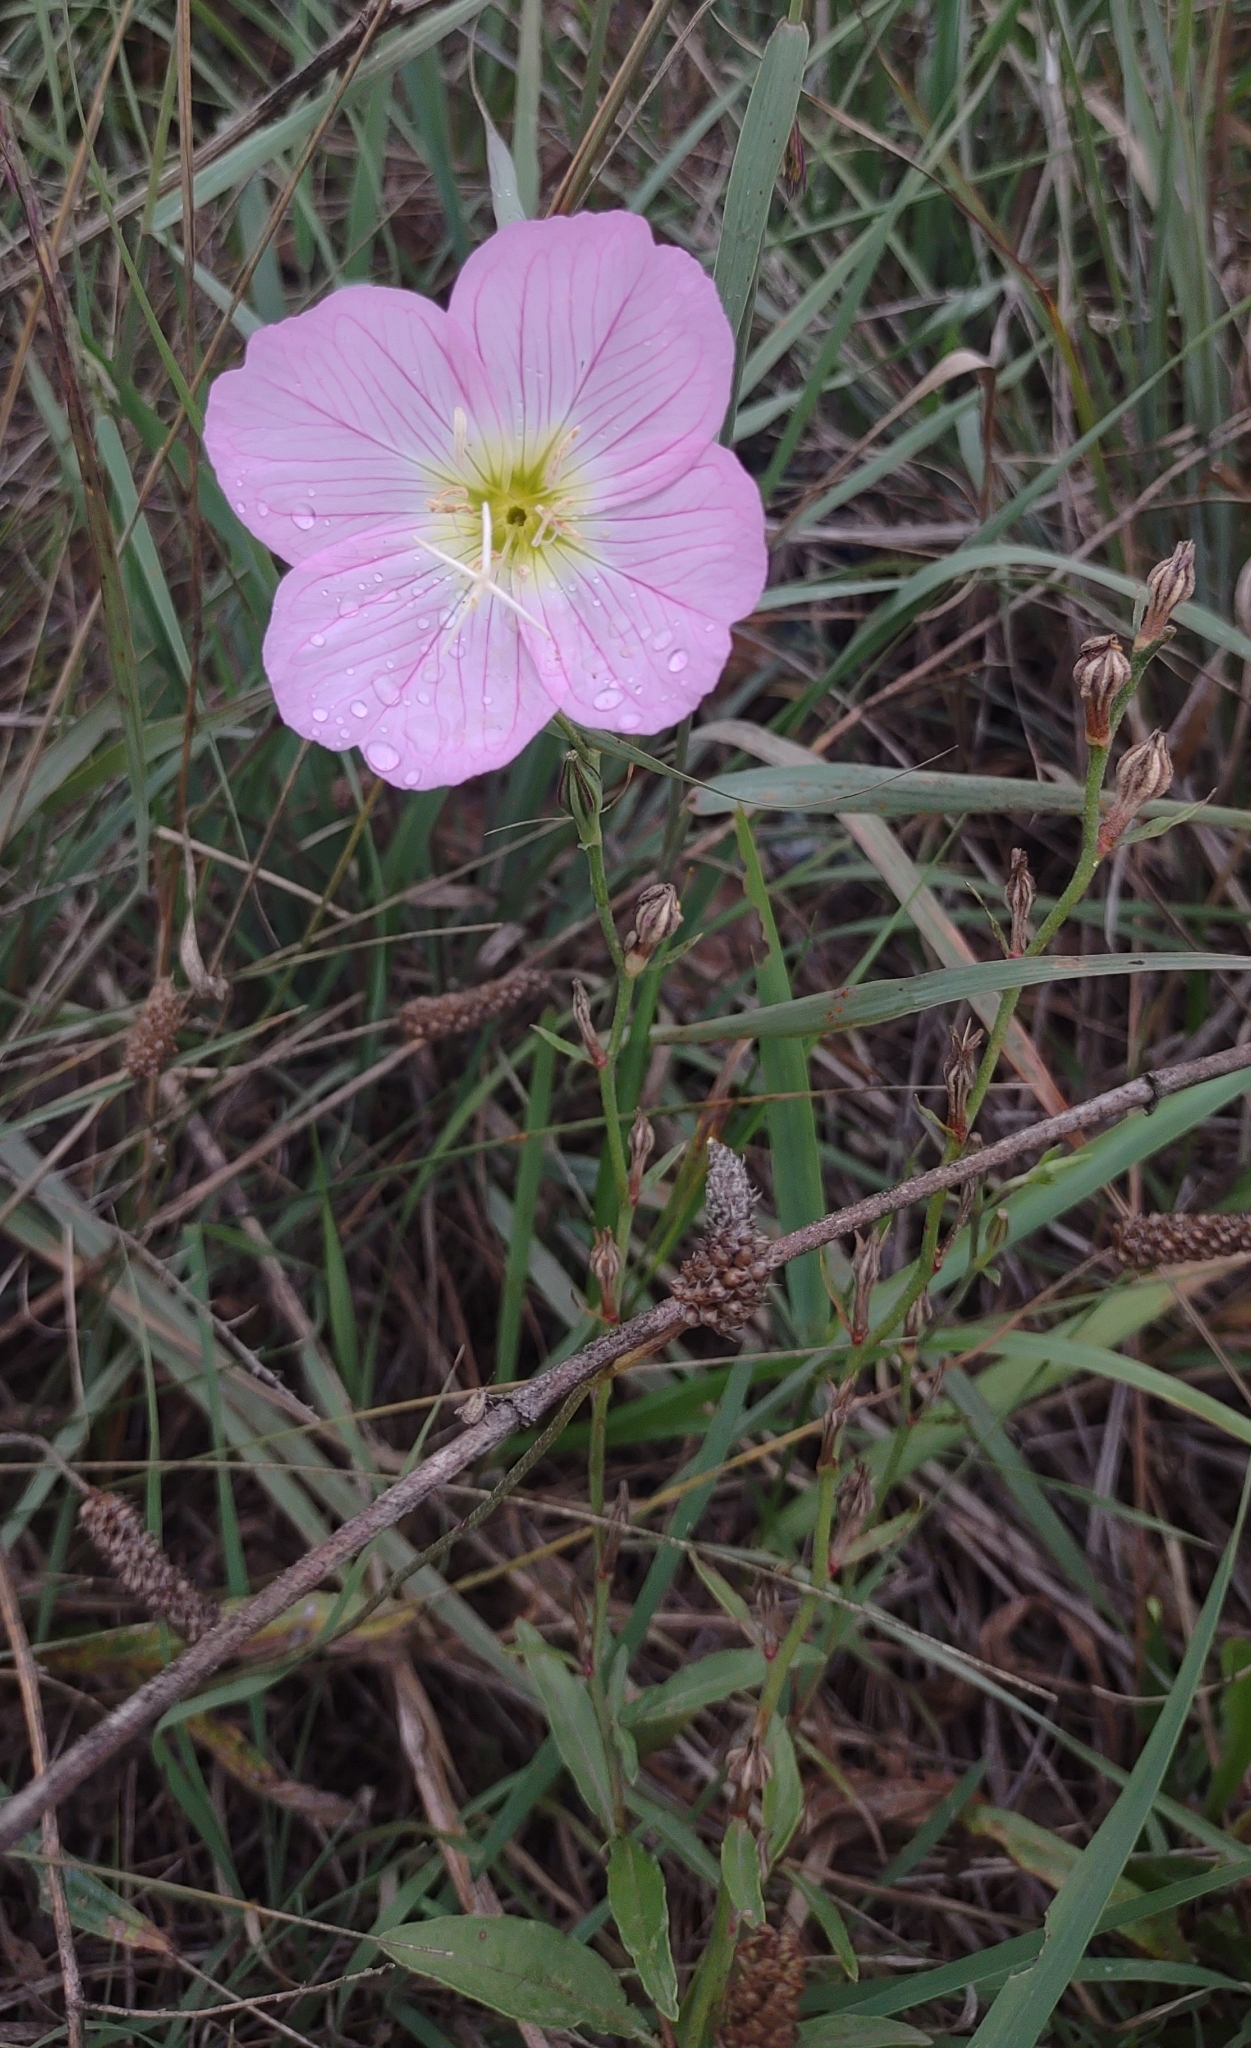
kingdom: Plantae
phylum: Tracheophyta
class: Magnoliopsida
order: Myrtales
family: Onagraceae
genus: Oenothera
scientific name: Oenothera speciosa
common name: White evening-primrose
